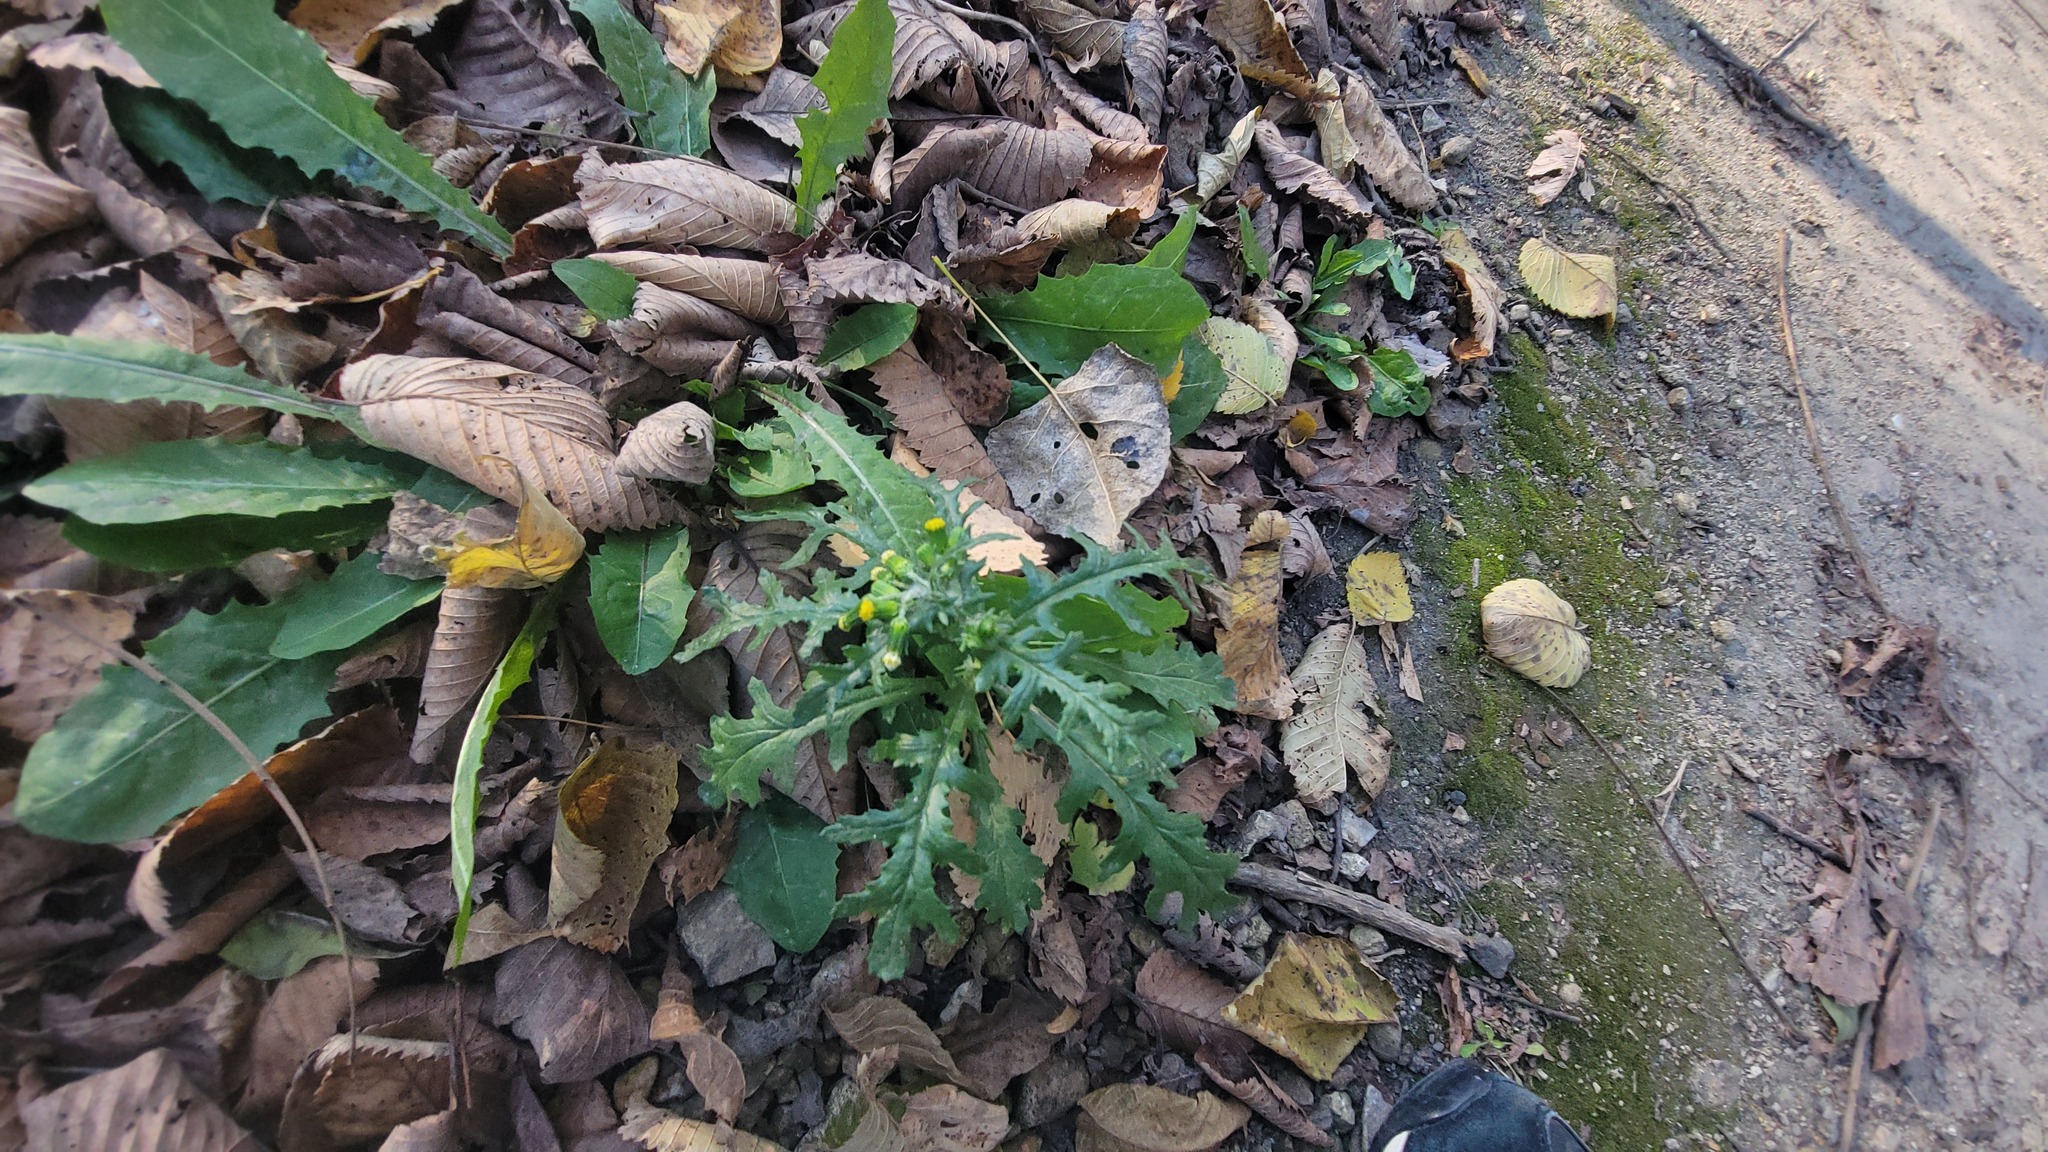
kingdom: Plantae
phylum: Tracheophyta
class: Magnoliopsida
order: Asterales
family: Asteraceae
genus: Senecio
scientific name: Senecio vulgaris
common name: Old-man-in-the-spring
